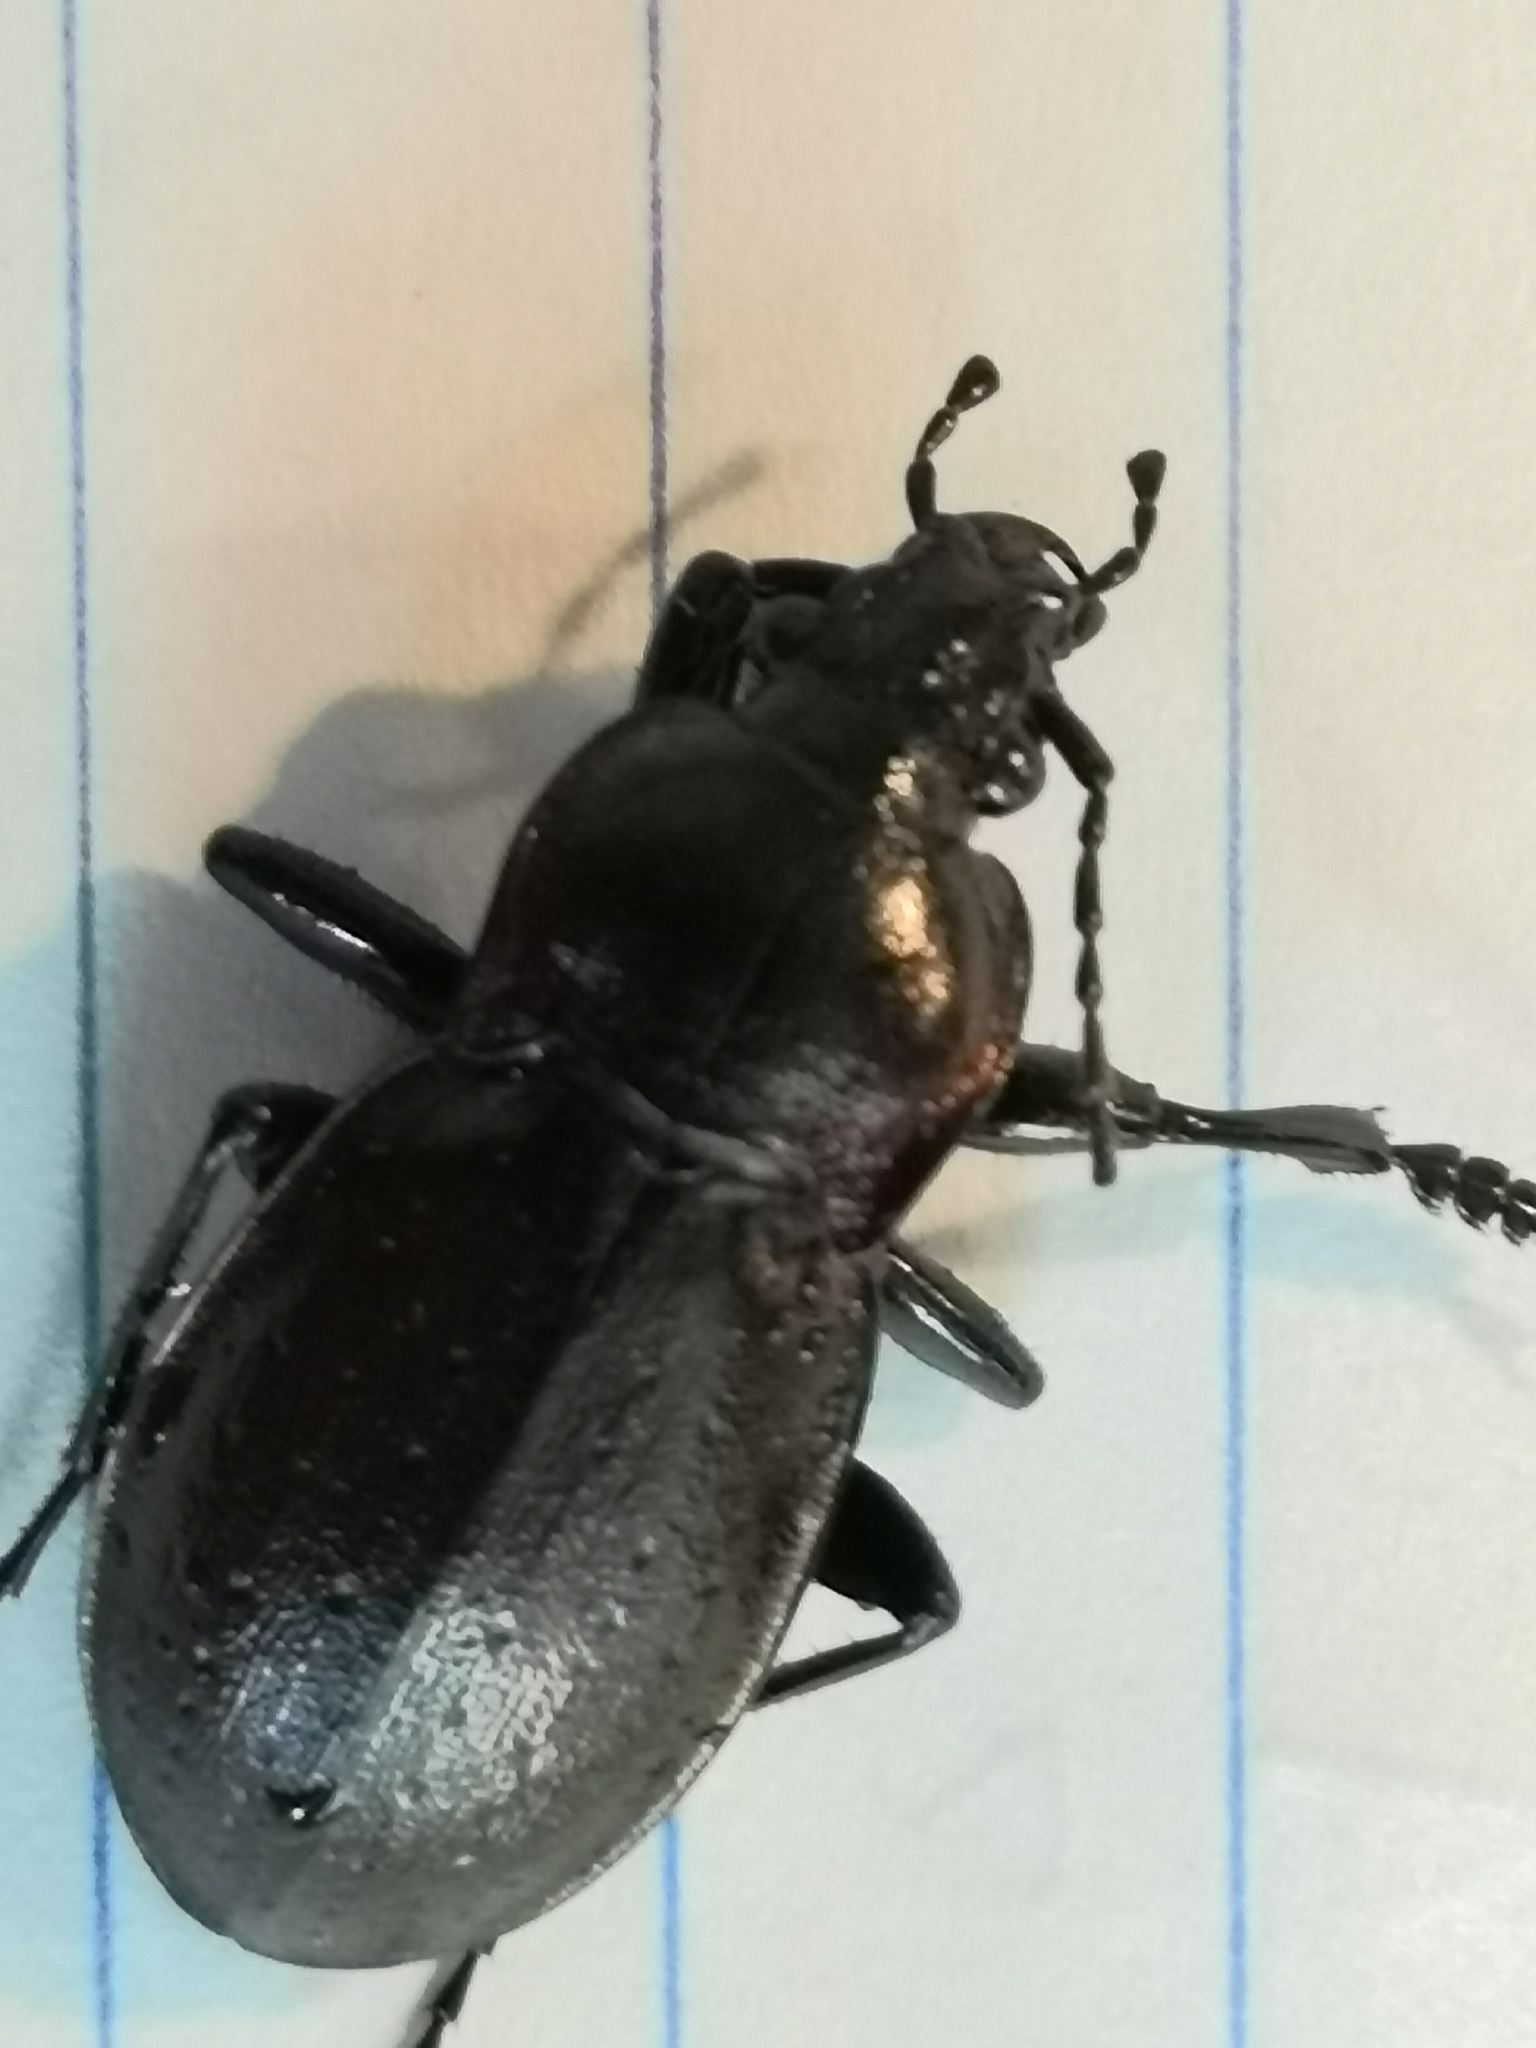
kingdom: Animalia
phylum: Arthropoda
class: Insecta
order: Coleoptera
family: Carabidae
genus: Carabus
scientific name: Carabus nemoralis
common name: European ground beetle
